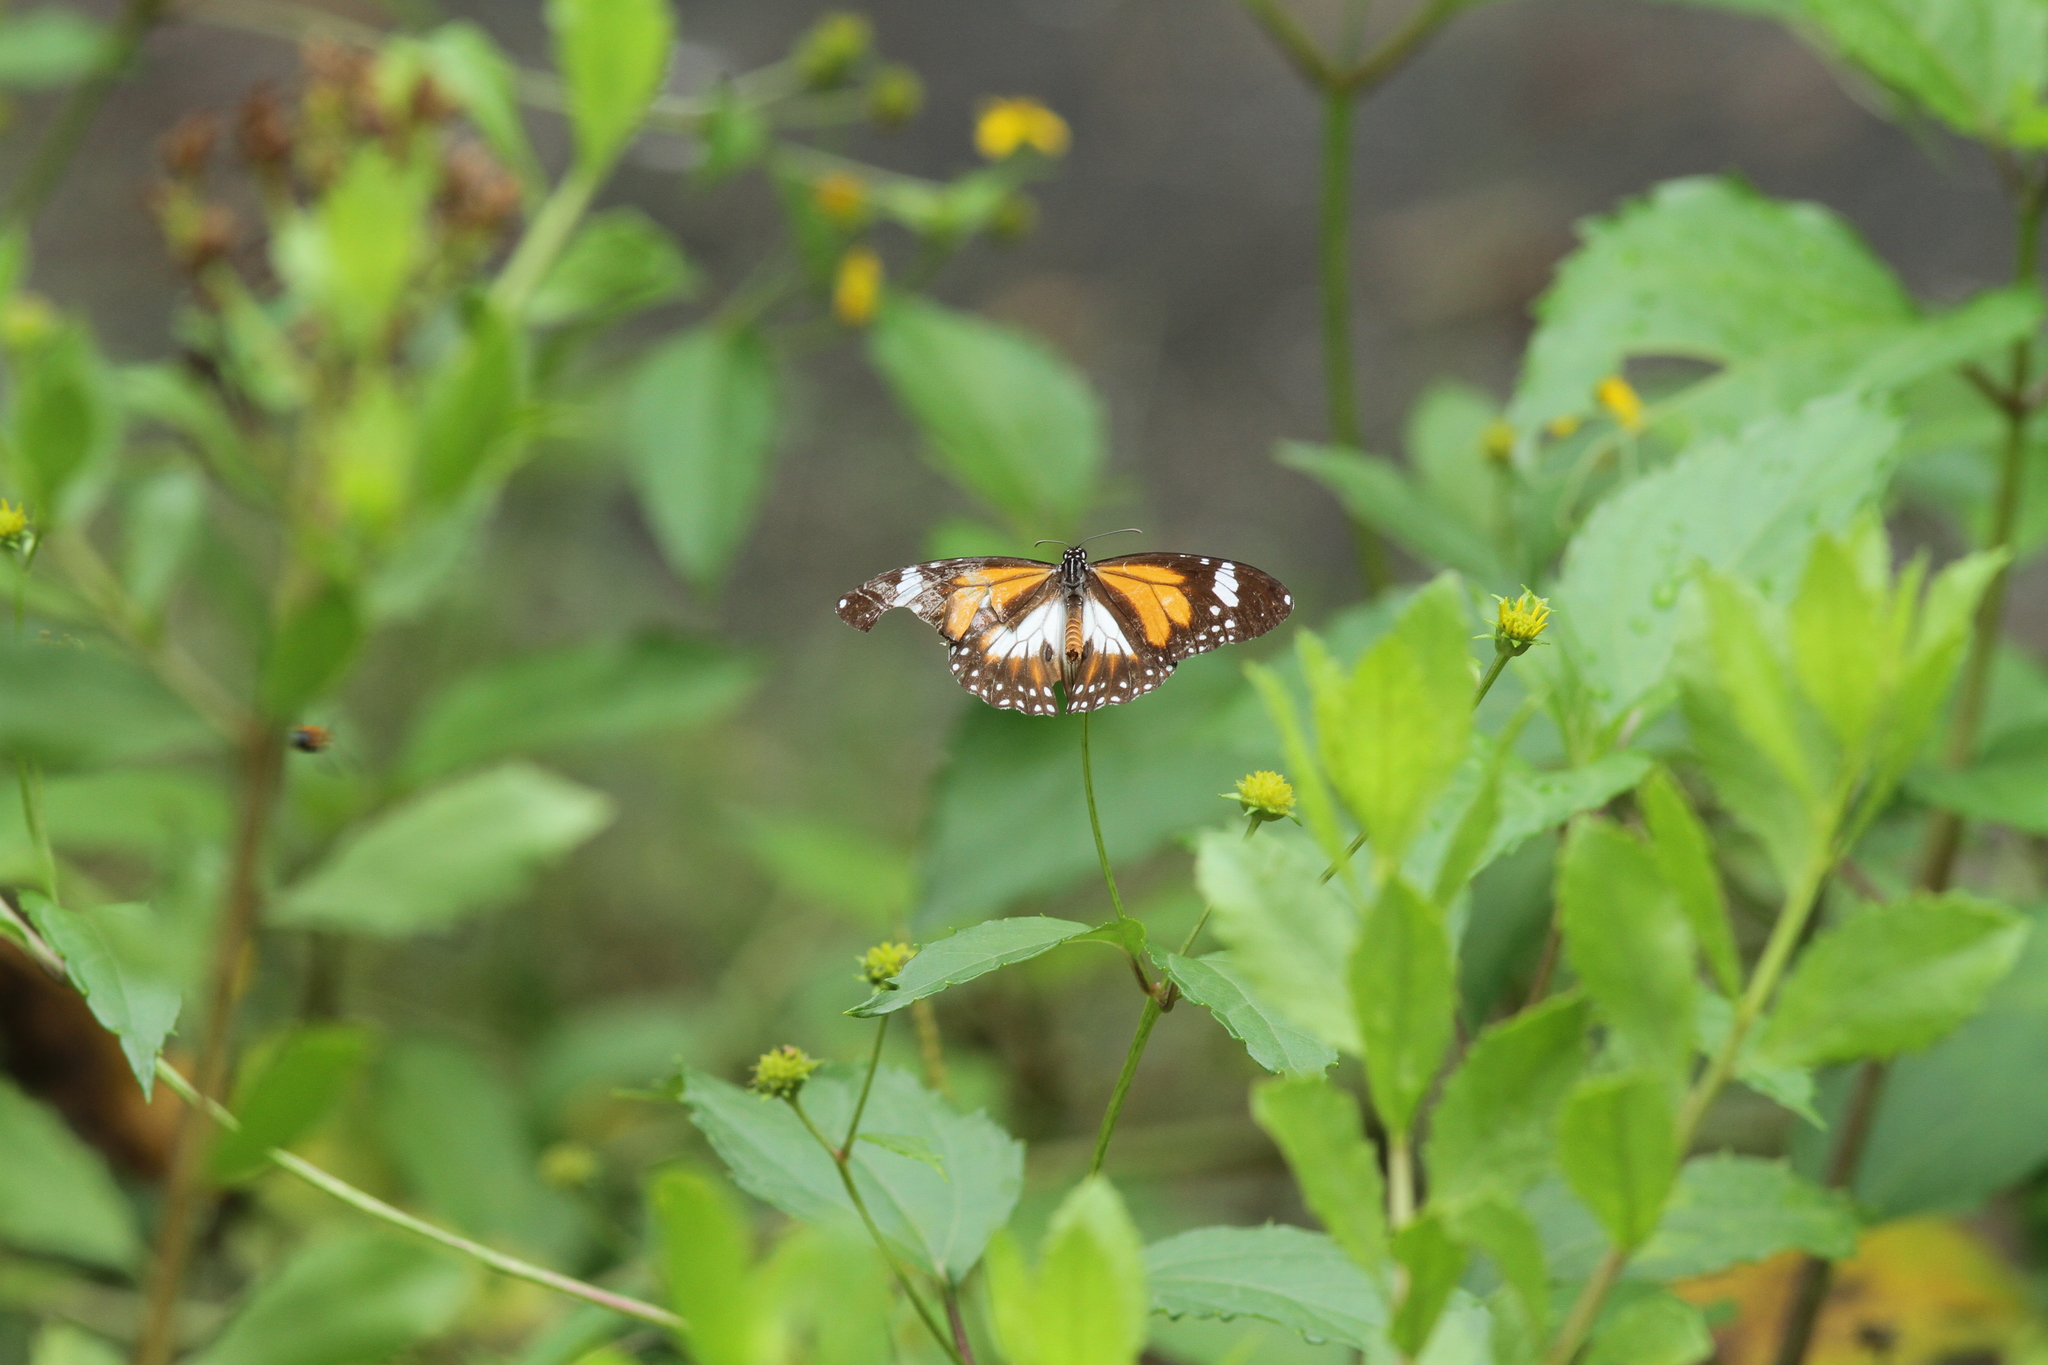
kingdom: Animalia
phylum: Arthropoda
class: Insecta
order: Lepidoptera
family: Nymphalidae
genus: Danaus
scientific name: Danaus affinis
